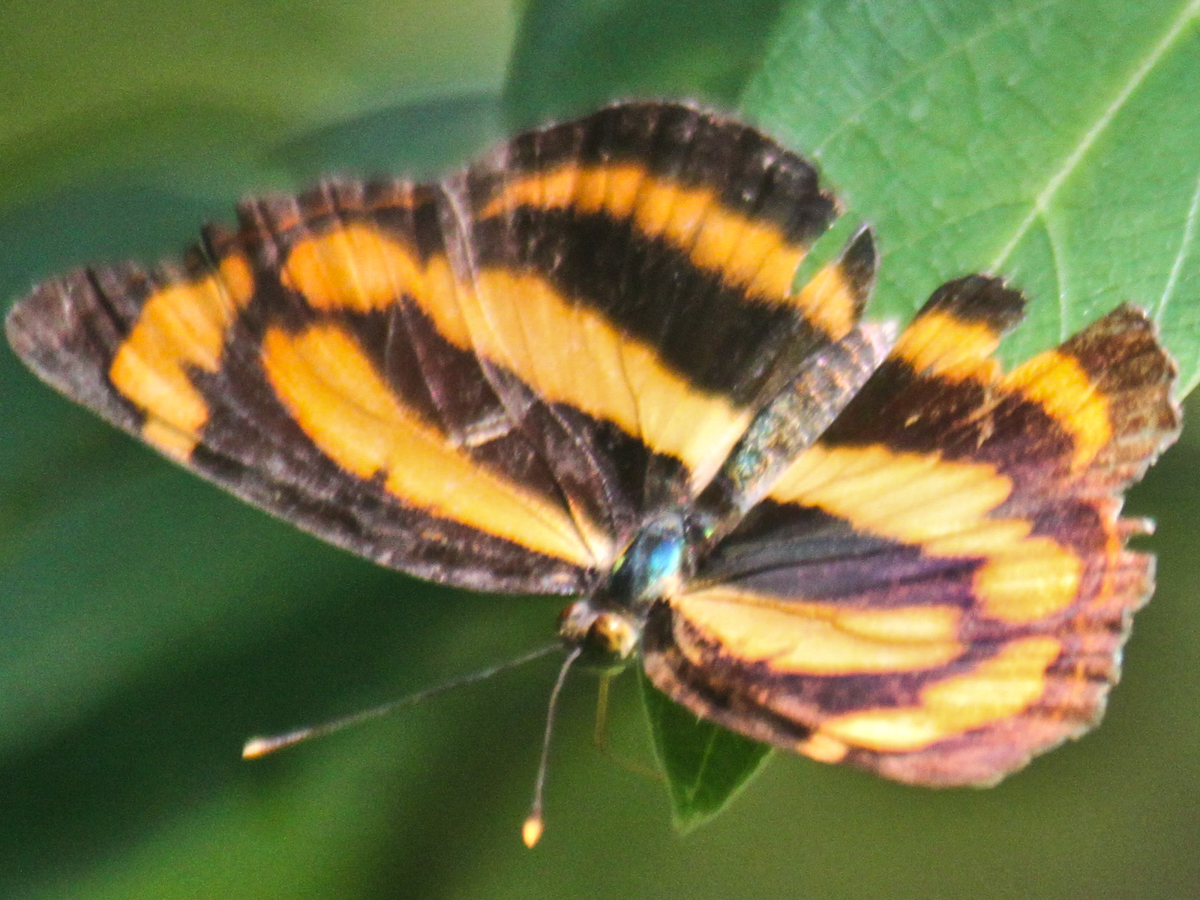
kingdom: Animalia
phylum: Arthropoda
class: Insecta
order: Lepidoptera
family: Nymphalidae
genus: Pantoporia
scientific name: Pantoporia hordonia
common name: Common lascar
